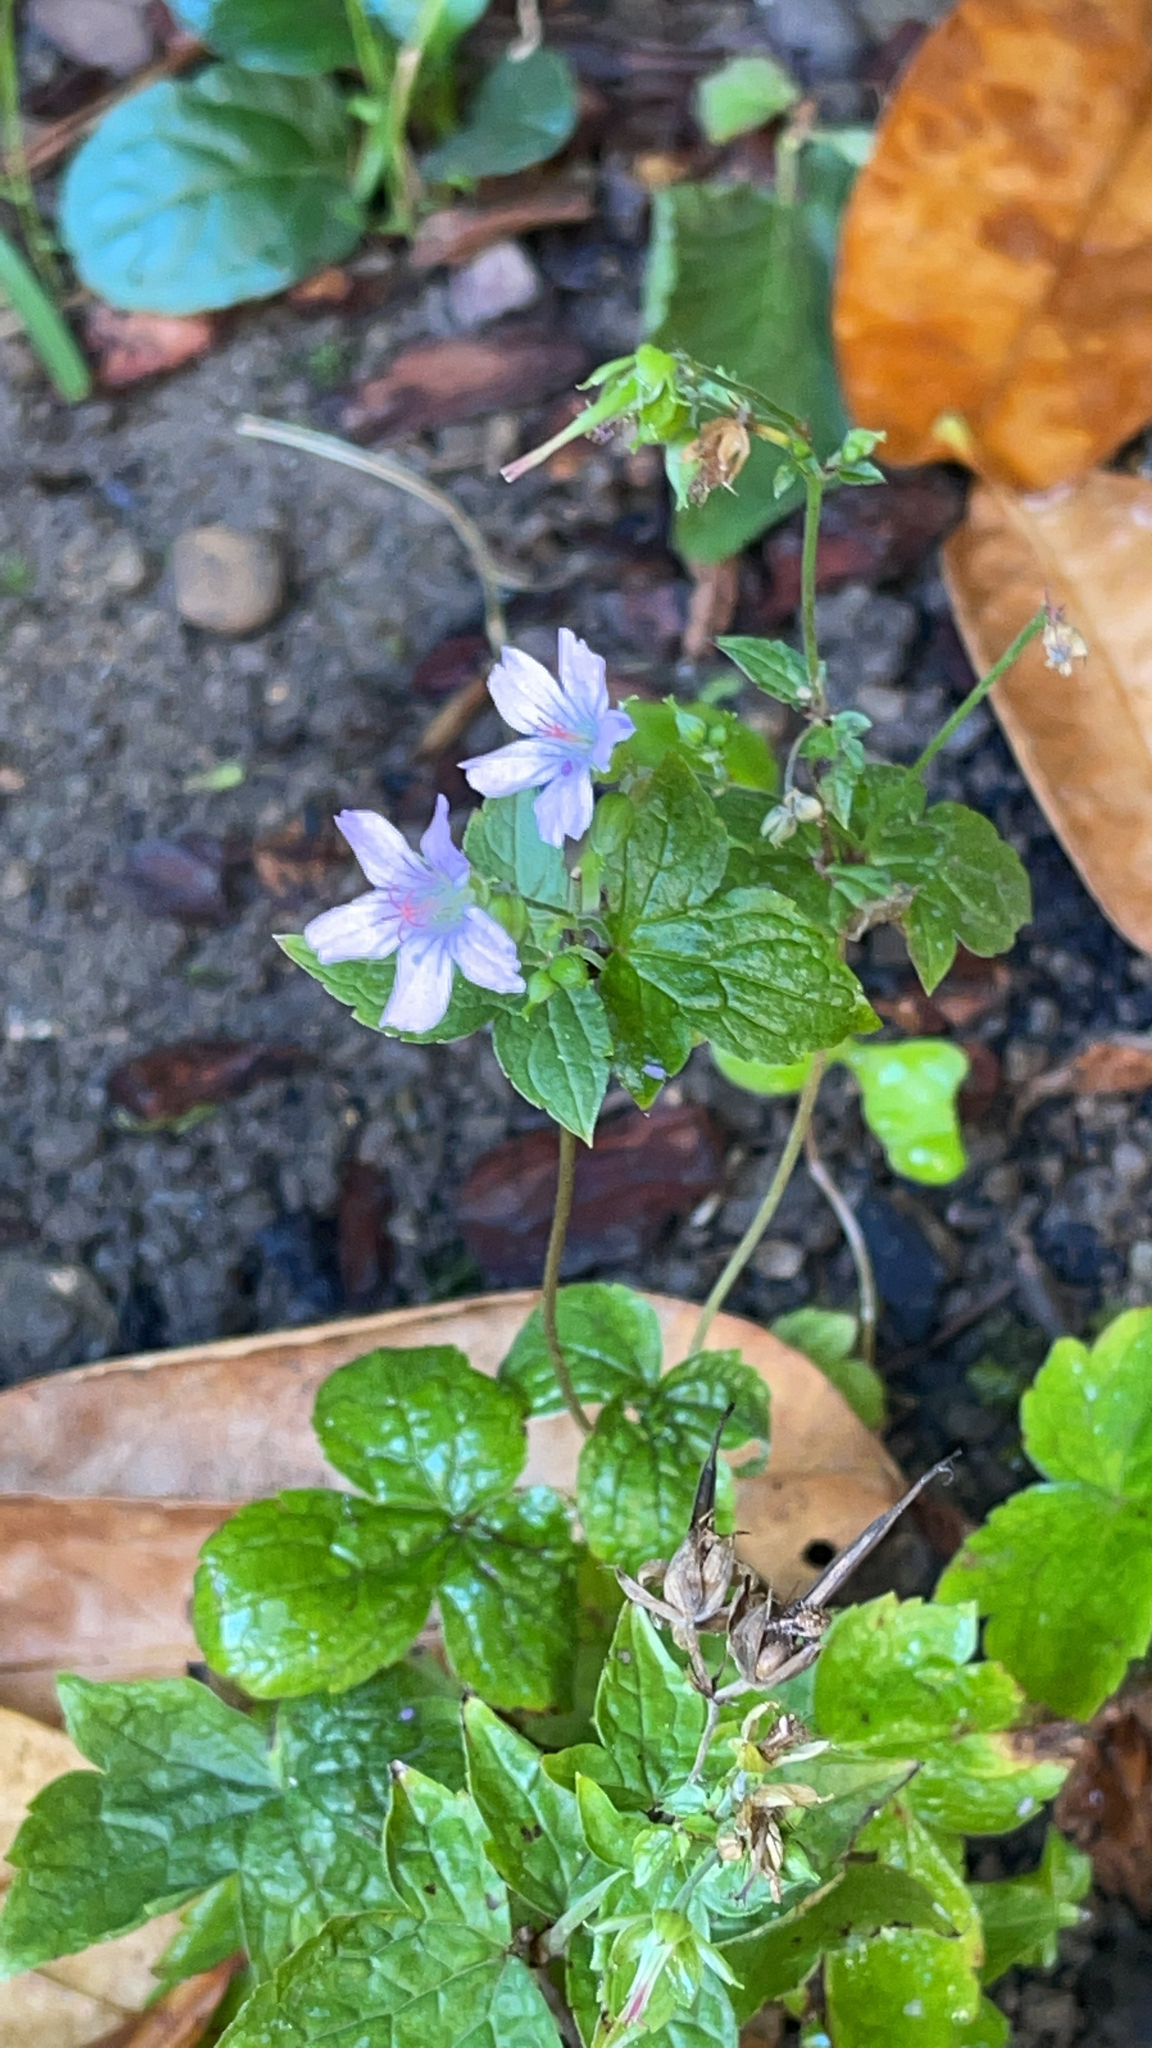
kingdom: Plantae
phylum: Tracheophyta
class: Magnoliopsida
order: Geraniales
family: Geraniaceae
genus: Geranium
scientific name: Geranium nodosum
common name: Knotted crane's-bill
